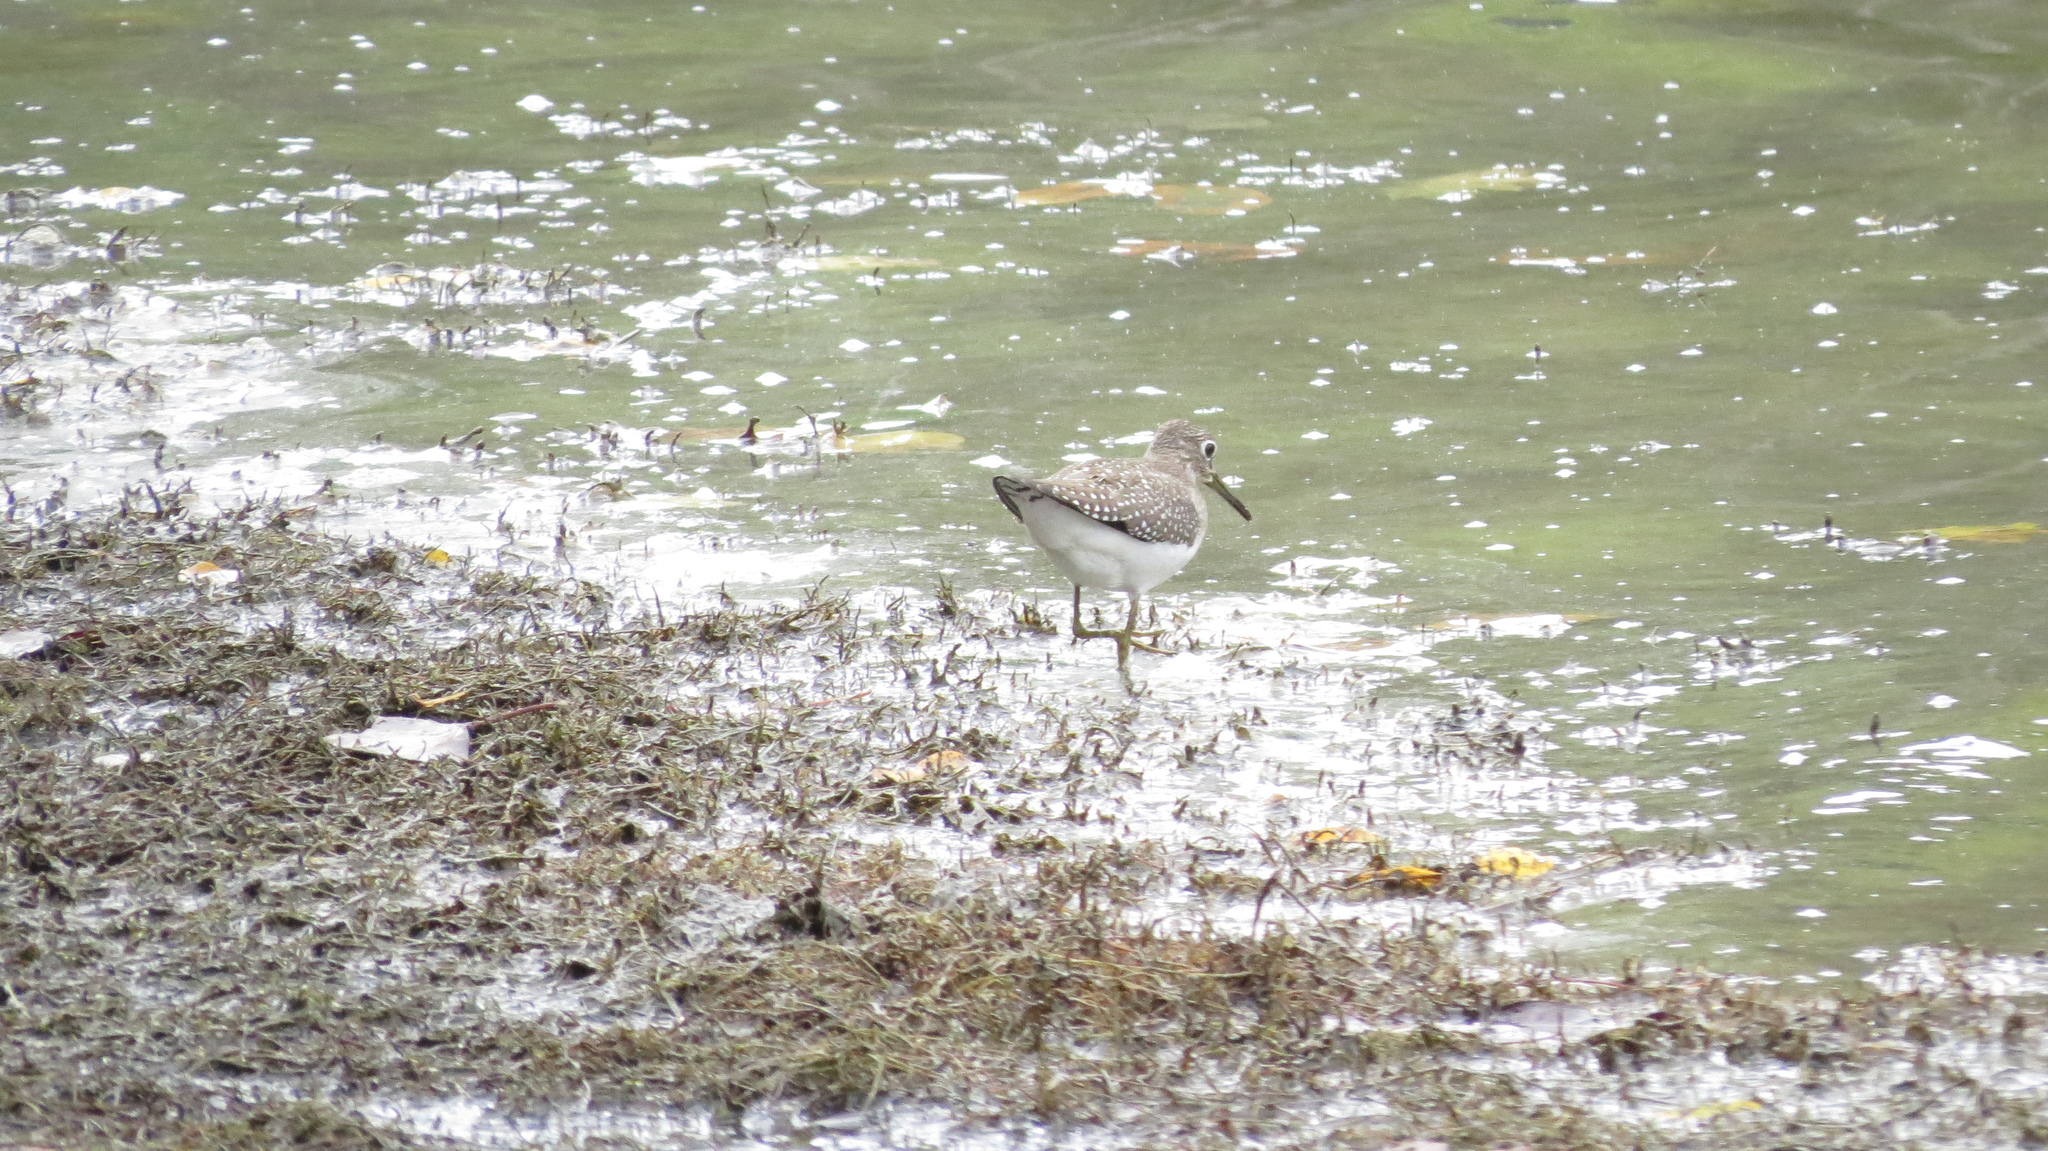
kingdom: Animalia
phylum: Chordata
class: Aves
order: Charadriiformes
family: Scolopacidae
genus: Tringa
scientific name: Tringa solitaria
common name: Solitary sandpiper
